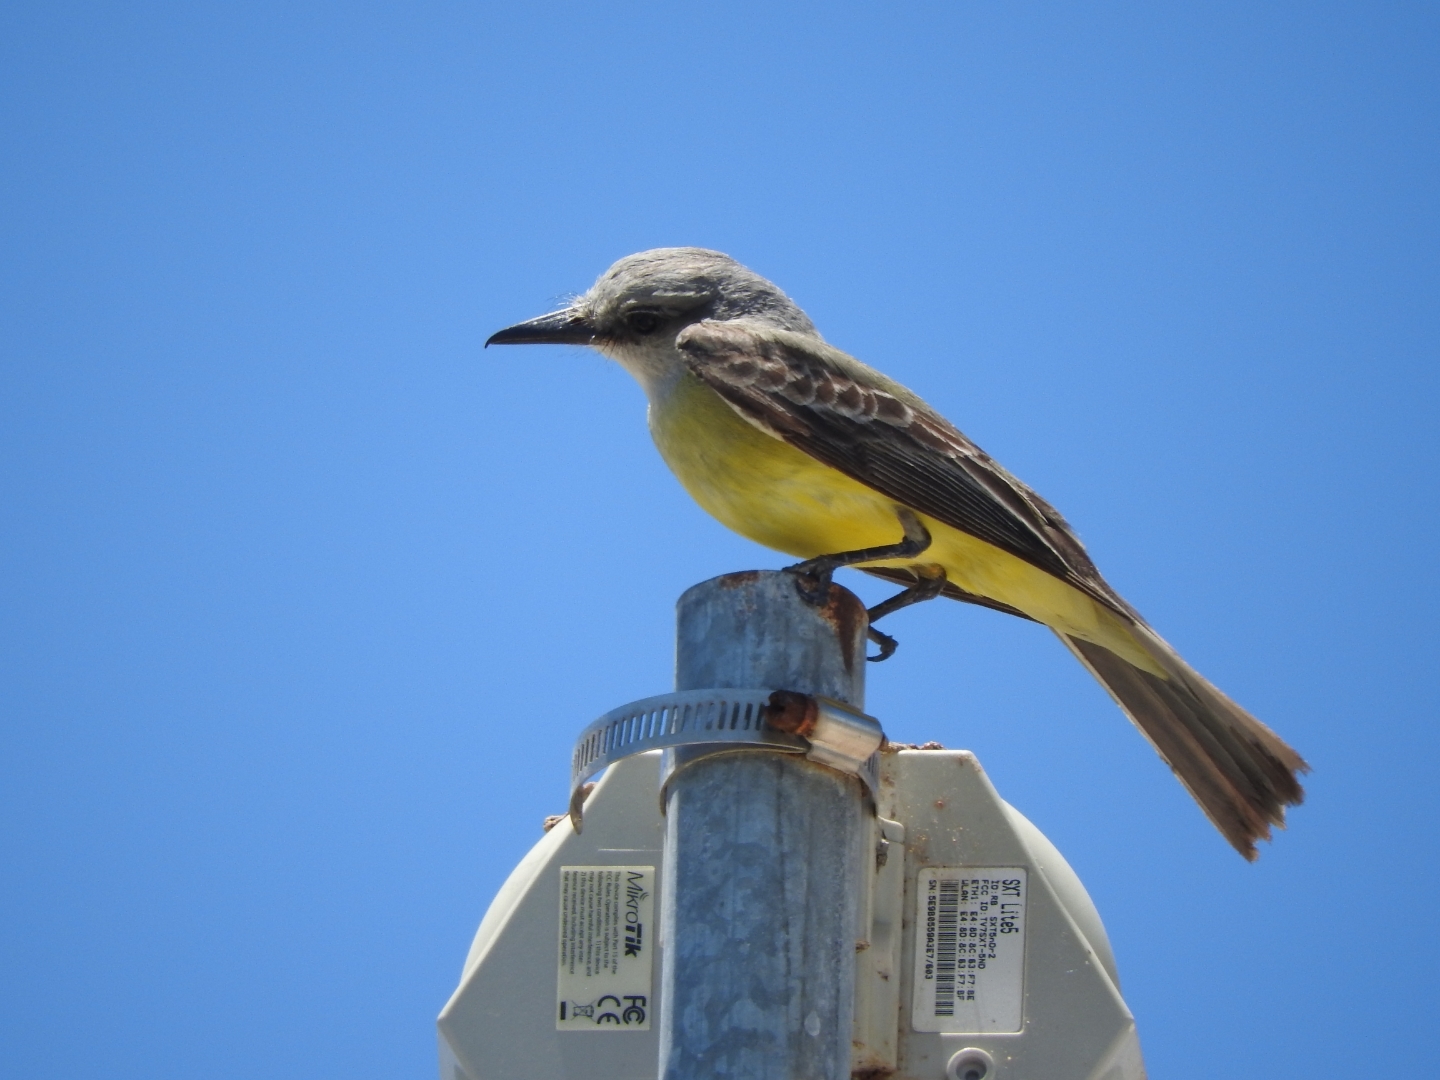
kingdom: Animalia
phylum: Chordata
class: Aves
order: Passeriformes
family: Tyrannidae
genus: Tyrannus
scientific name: Tyrannus melancholicus
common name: Tropical kingbird
